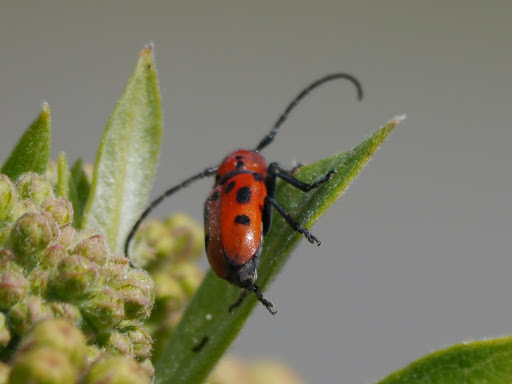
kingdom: Animalia
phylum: Arthropoda
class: Insecta
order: Coleoptera
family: Cerambycidae
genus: Tetraopes
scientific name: Tetraopes tetrophthalmus
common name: Red milkweed beetle
